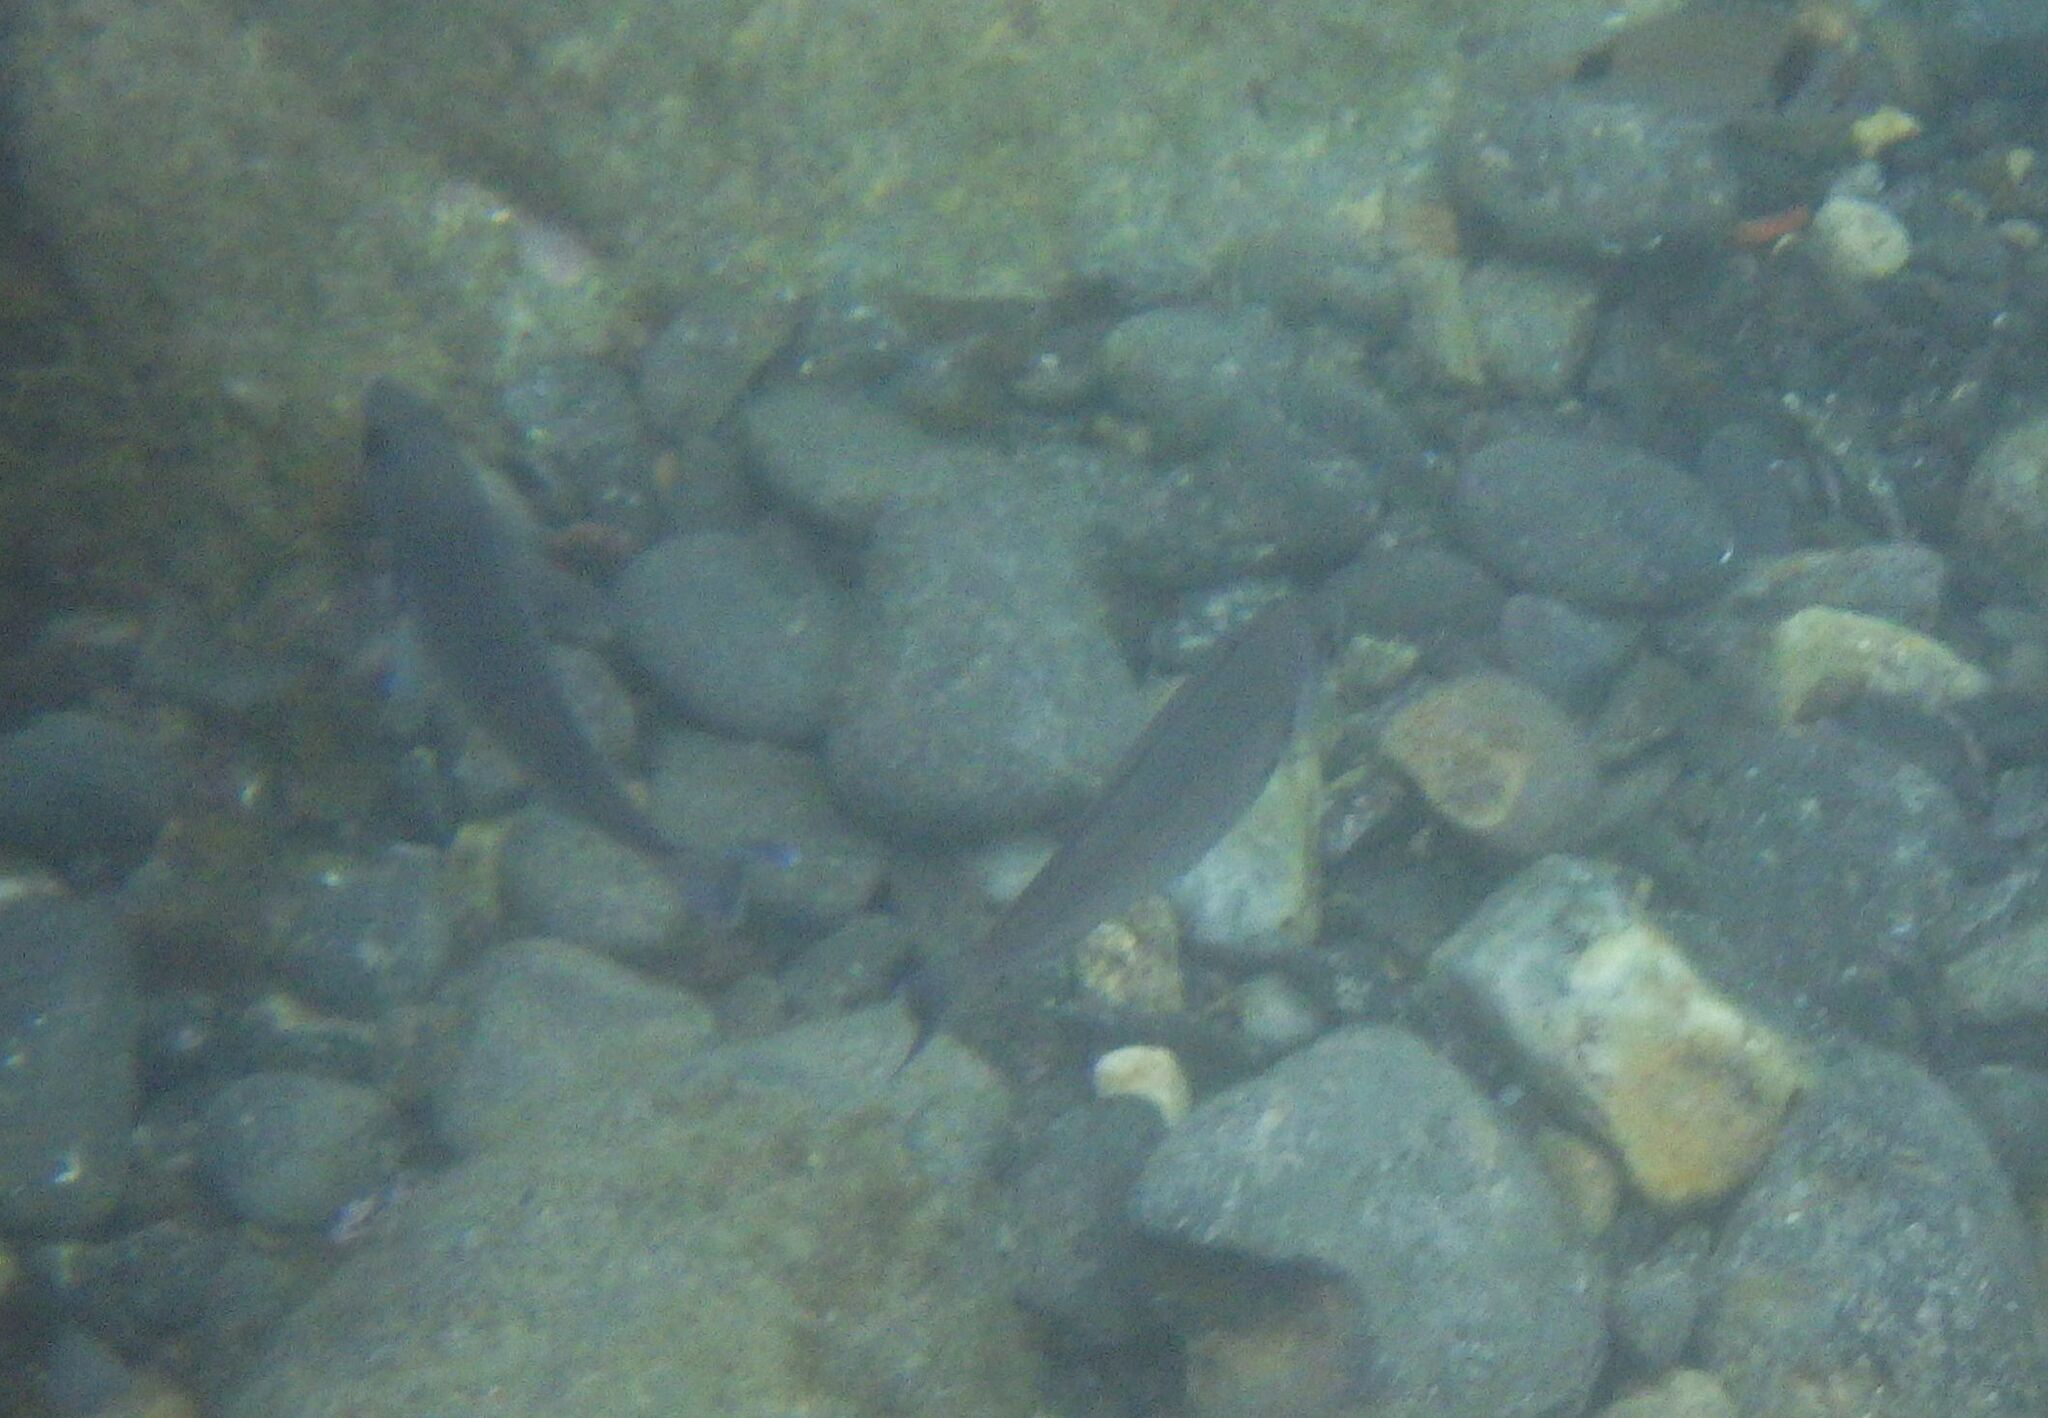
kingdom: Animalia
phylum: Chordata
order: Perciformes
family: Sparidae
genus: Spondyliosoma
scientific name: Spondyliosoma cantharus
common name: Black seabream
